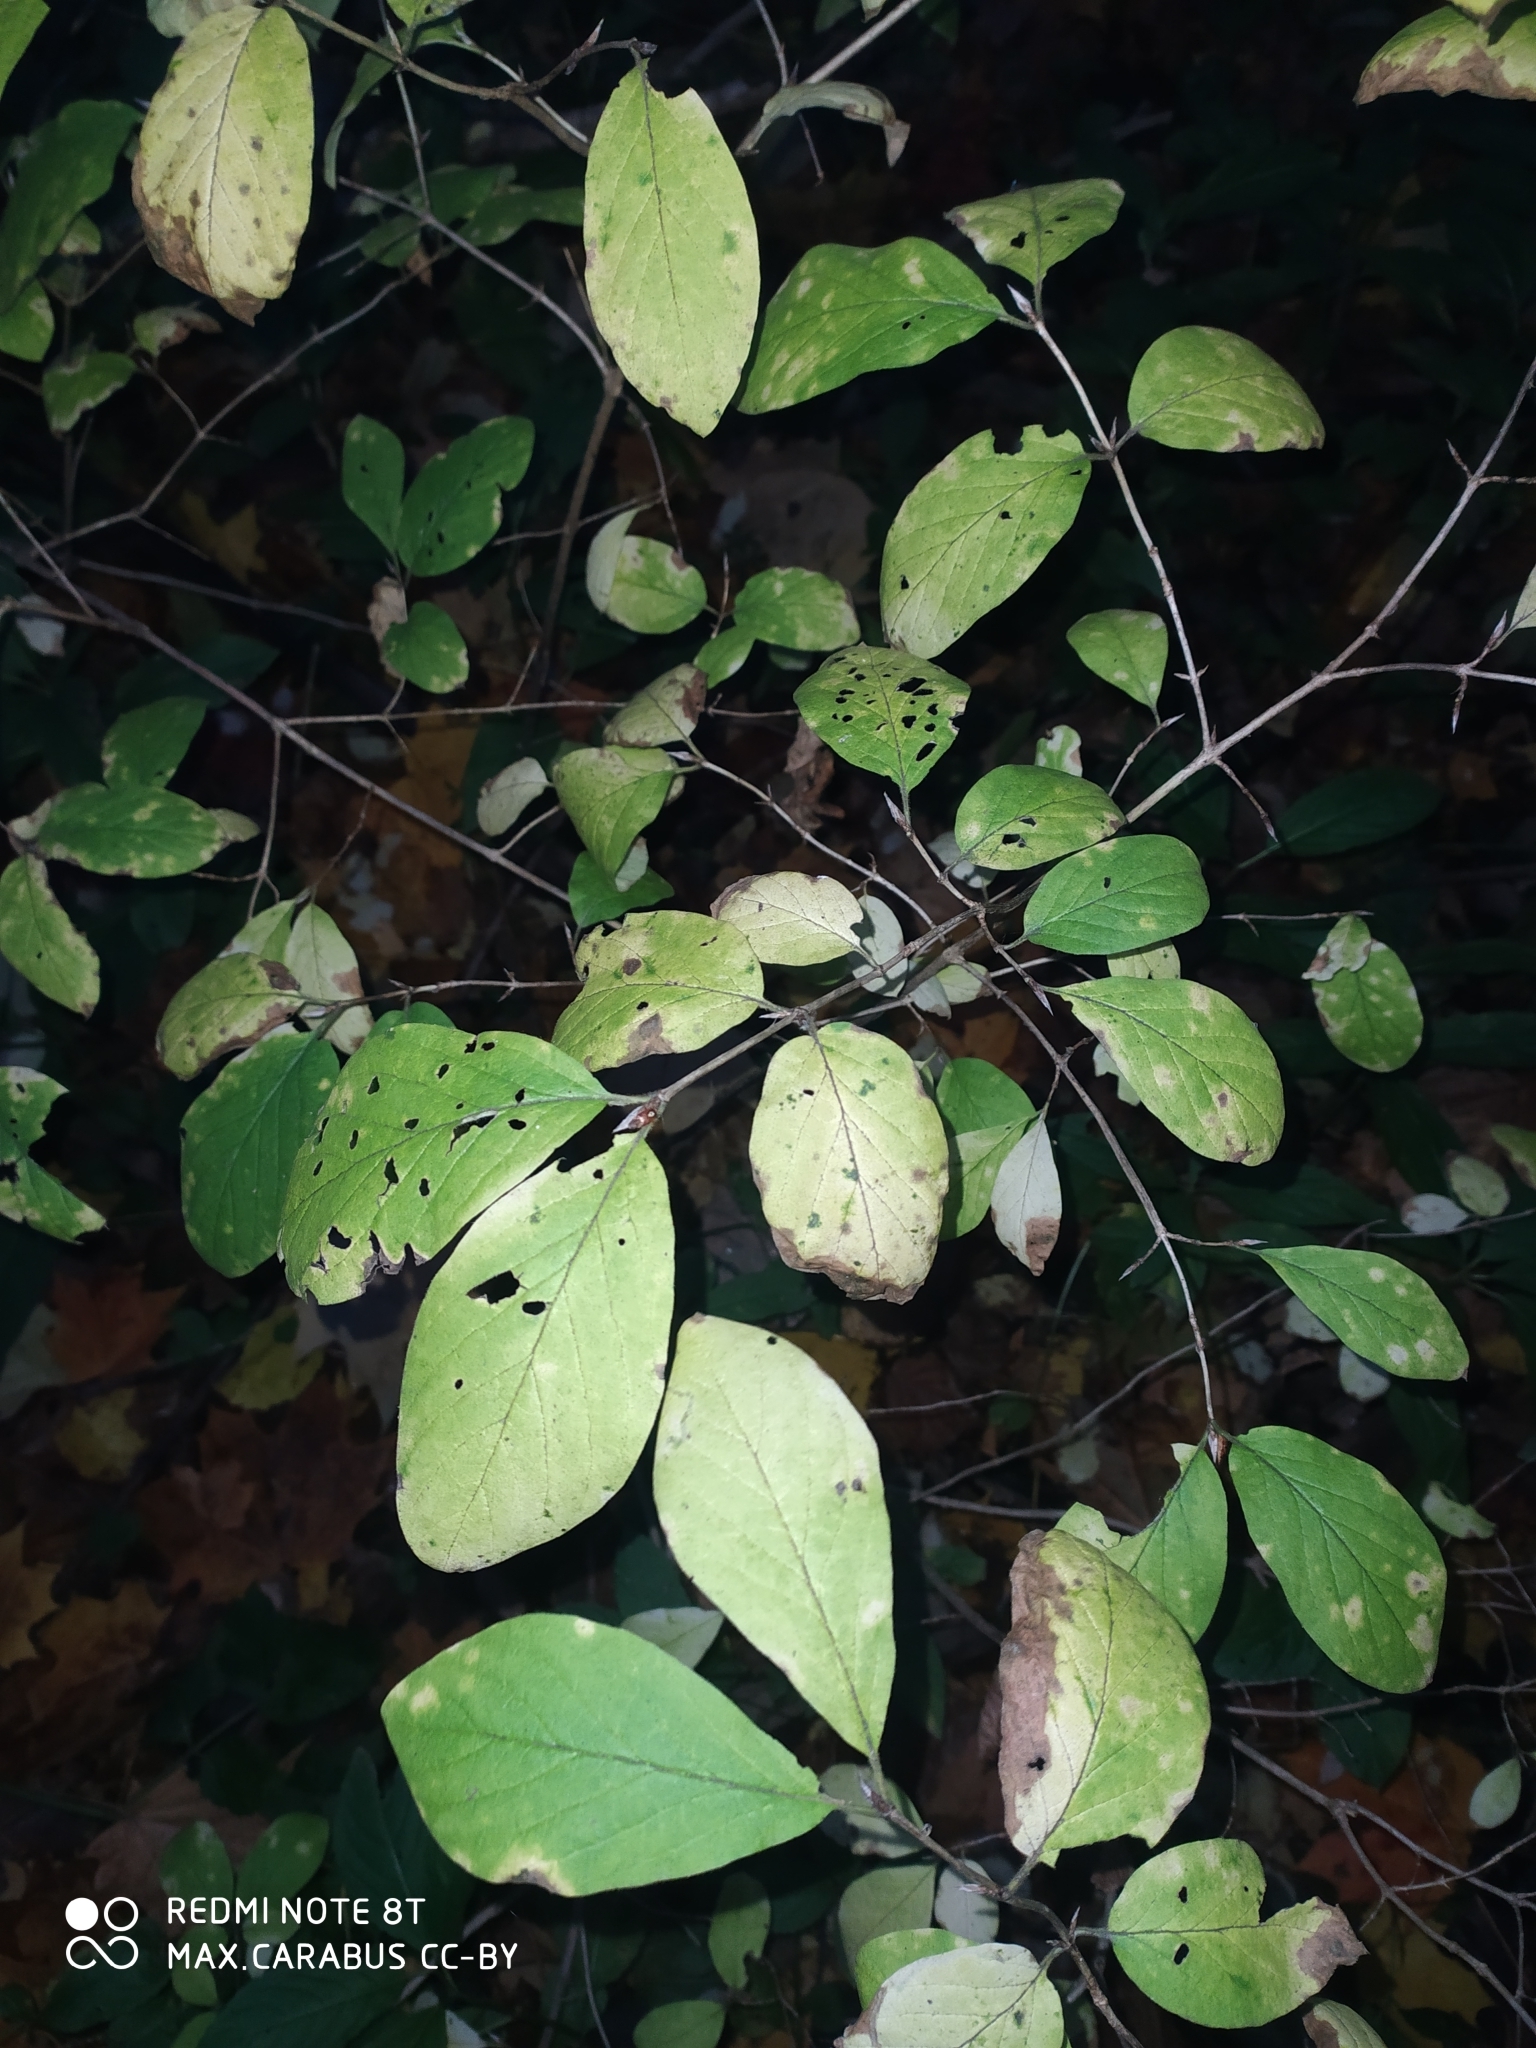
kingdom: Plantae
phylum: Tracheophyta
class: Magnoliopsida
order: Dipsacales
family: Caprifoliaceae
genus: Lonicera
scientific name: Lonicera xylosteum
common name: Fly honeysuckle
